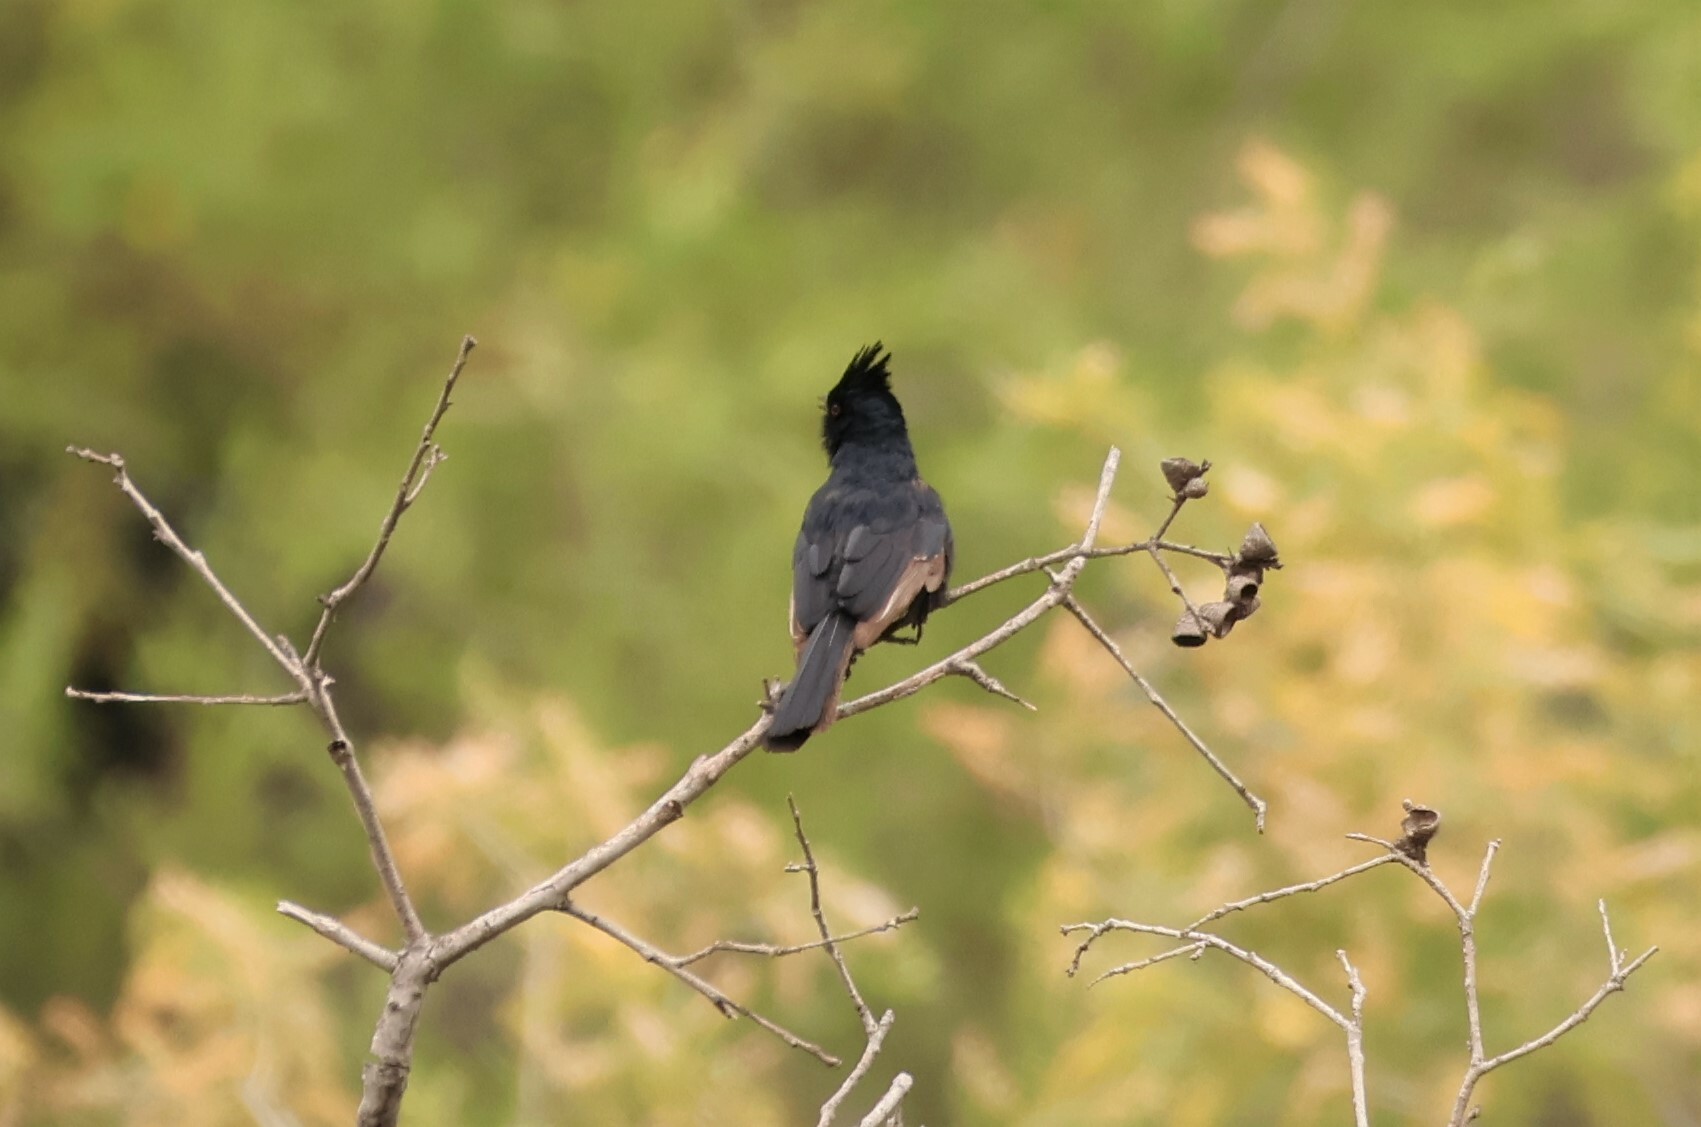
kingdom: Animalia
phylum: Chordata
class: Aves
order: Passeriformes
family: Ptilogonatidae
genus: Phainopepla
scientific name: Phainopepla nitens
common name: Phainopepla
